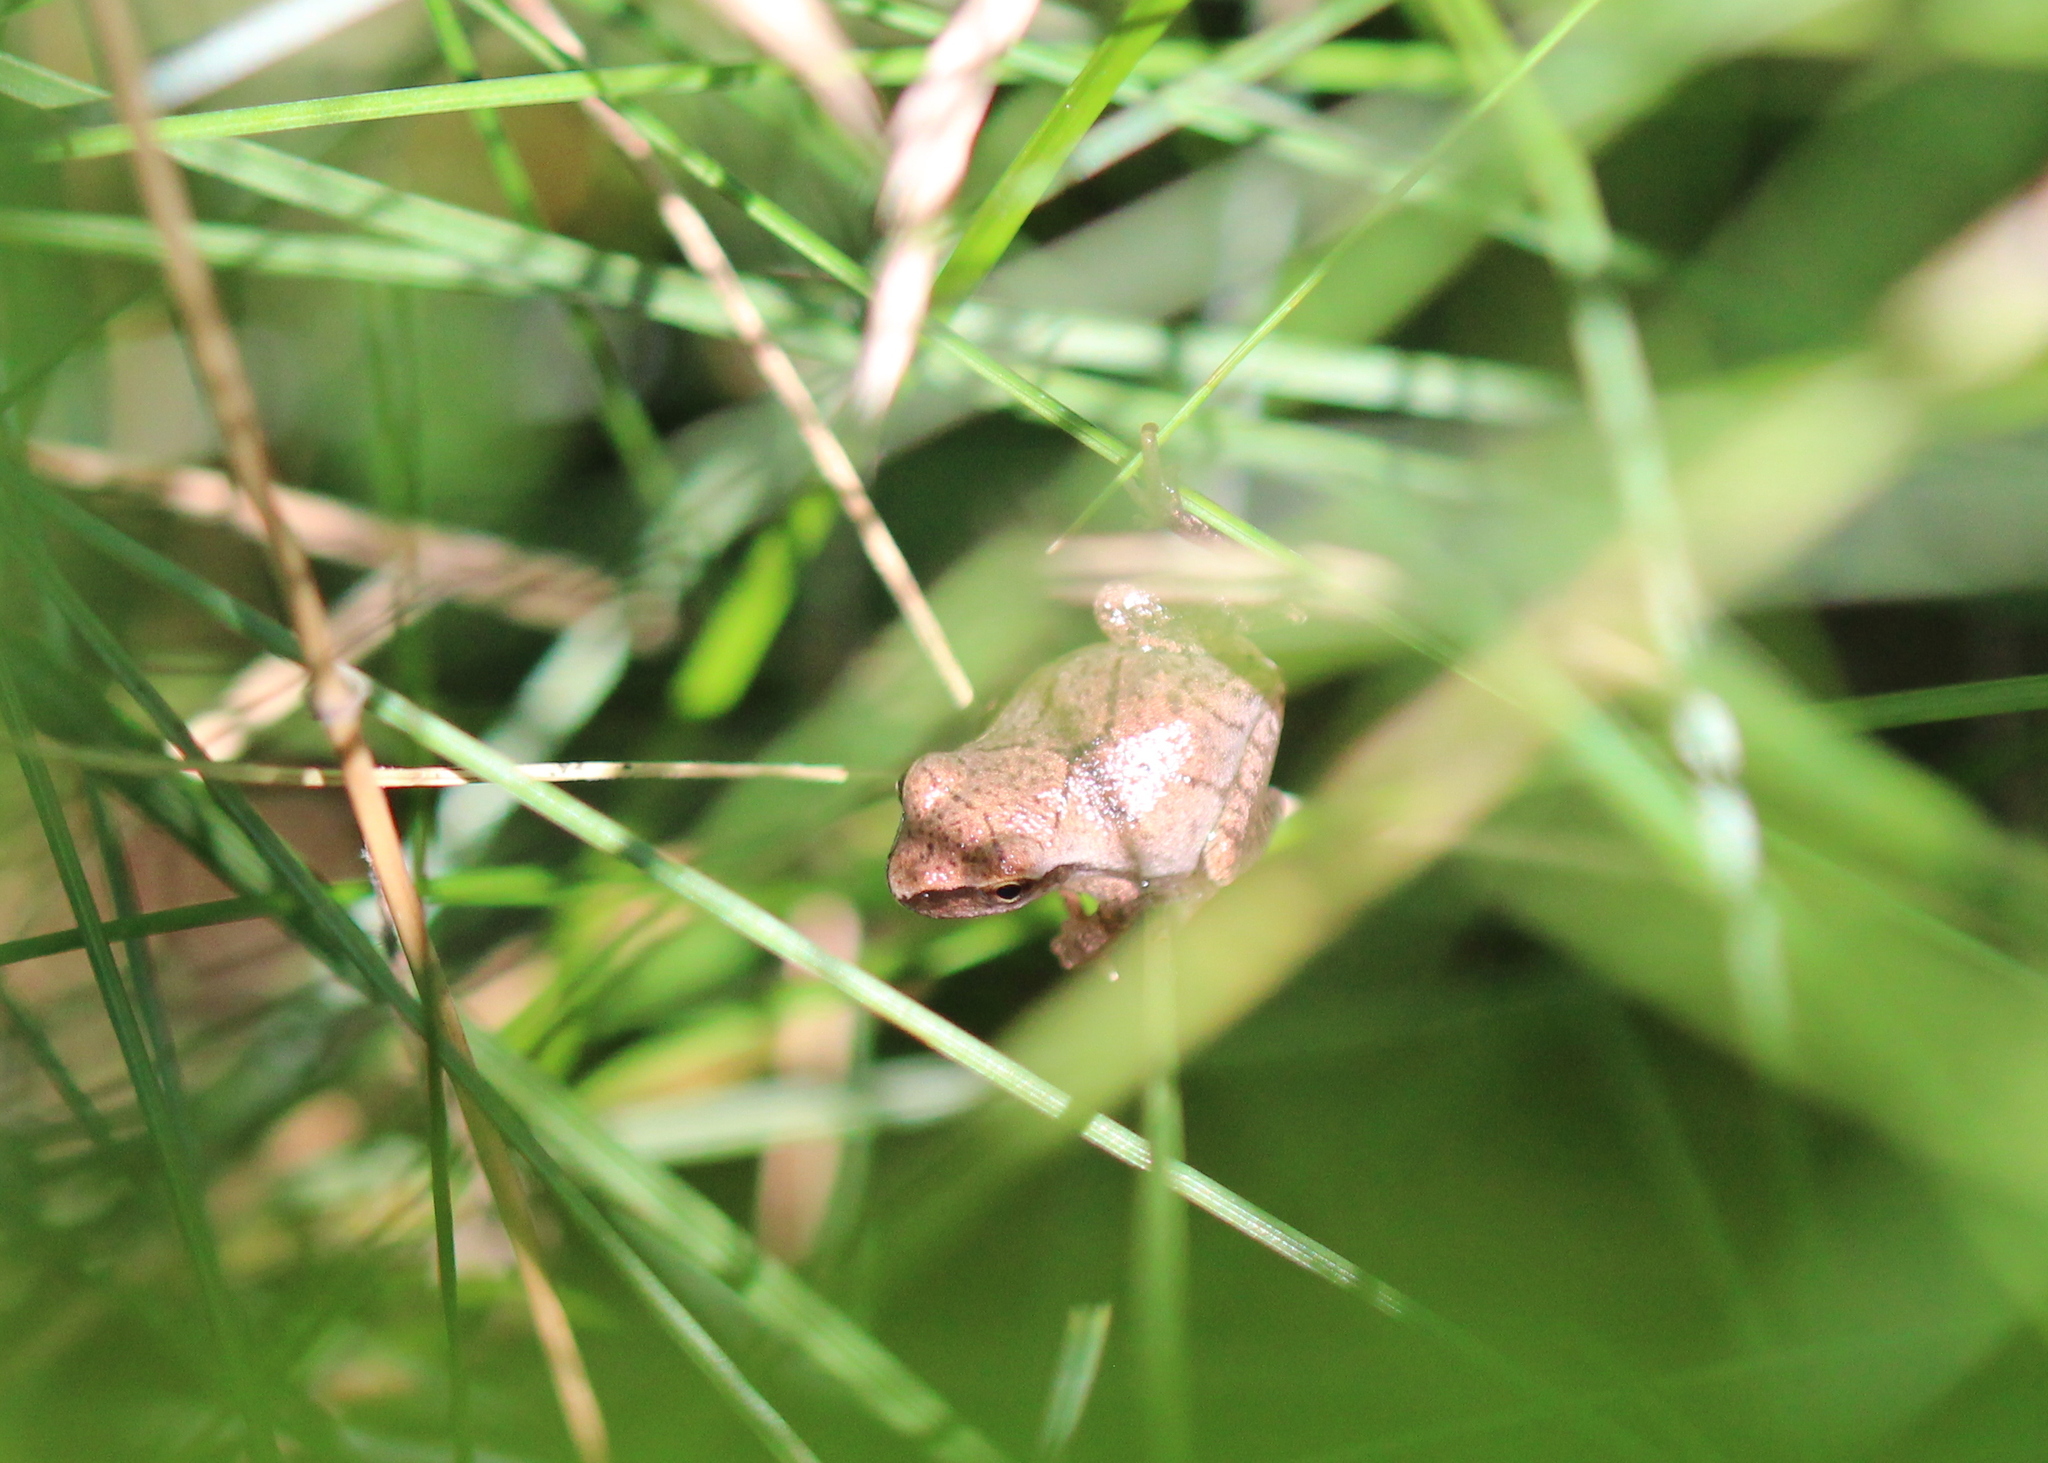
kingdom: Animalia
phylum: Chordata
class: Amphibia
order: Anura
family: Hylidae
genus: Pseudacris
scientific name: Pseudacris crucifer
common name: Spring peeper
